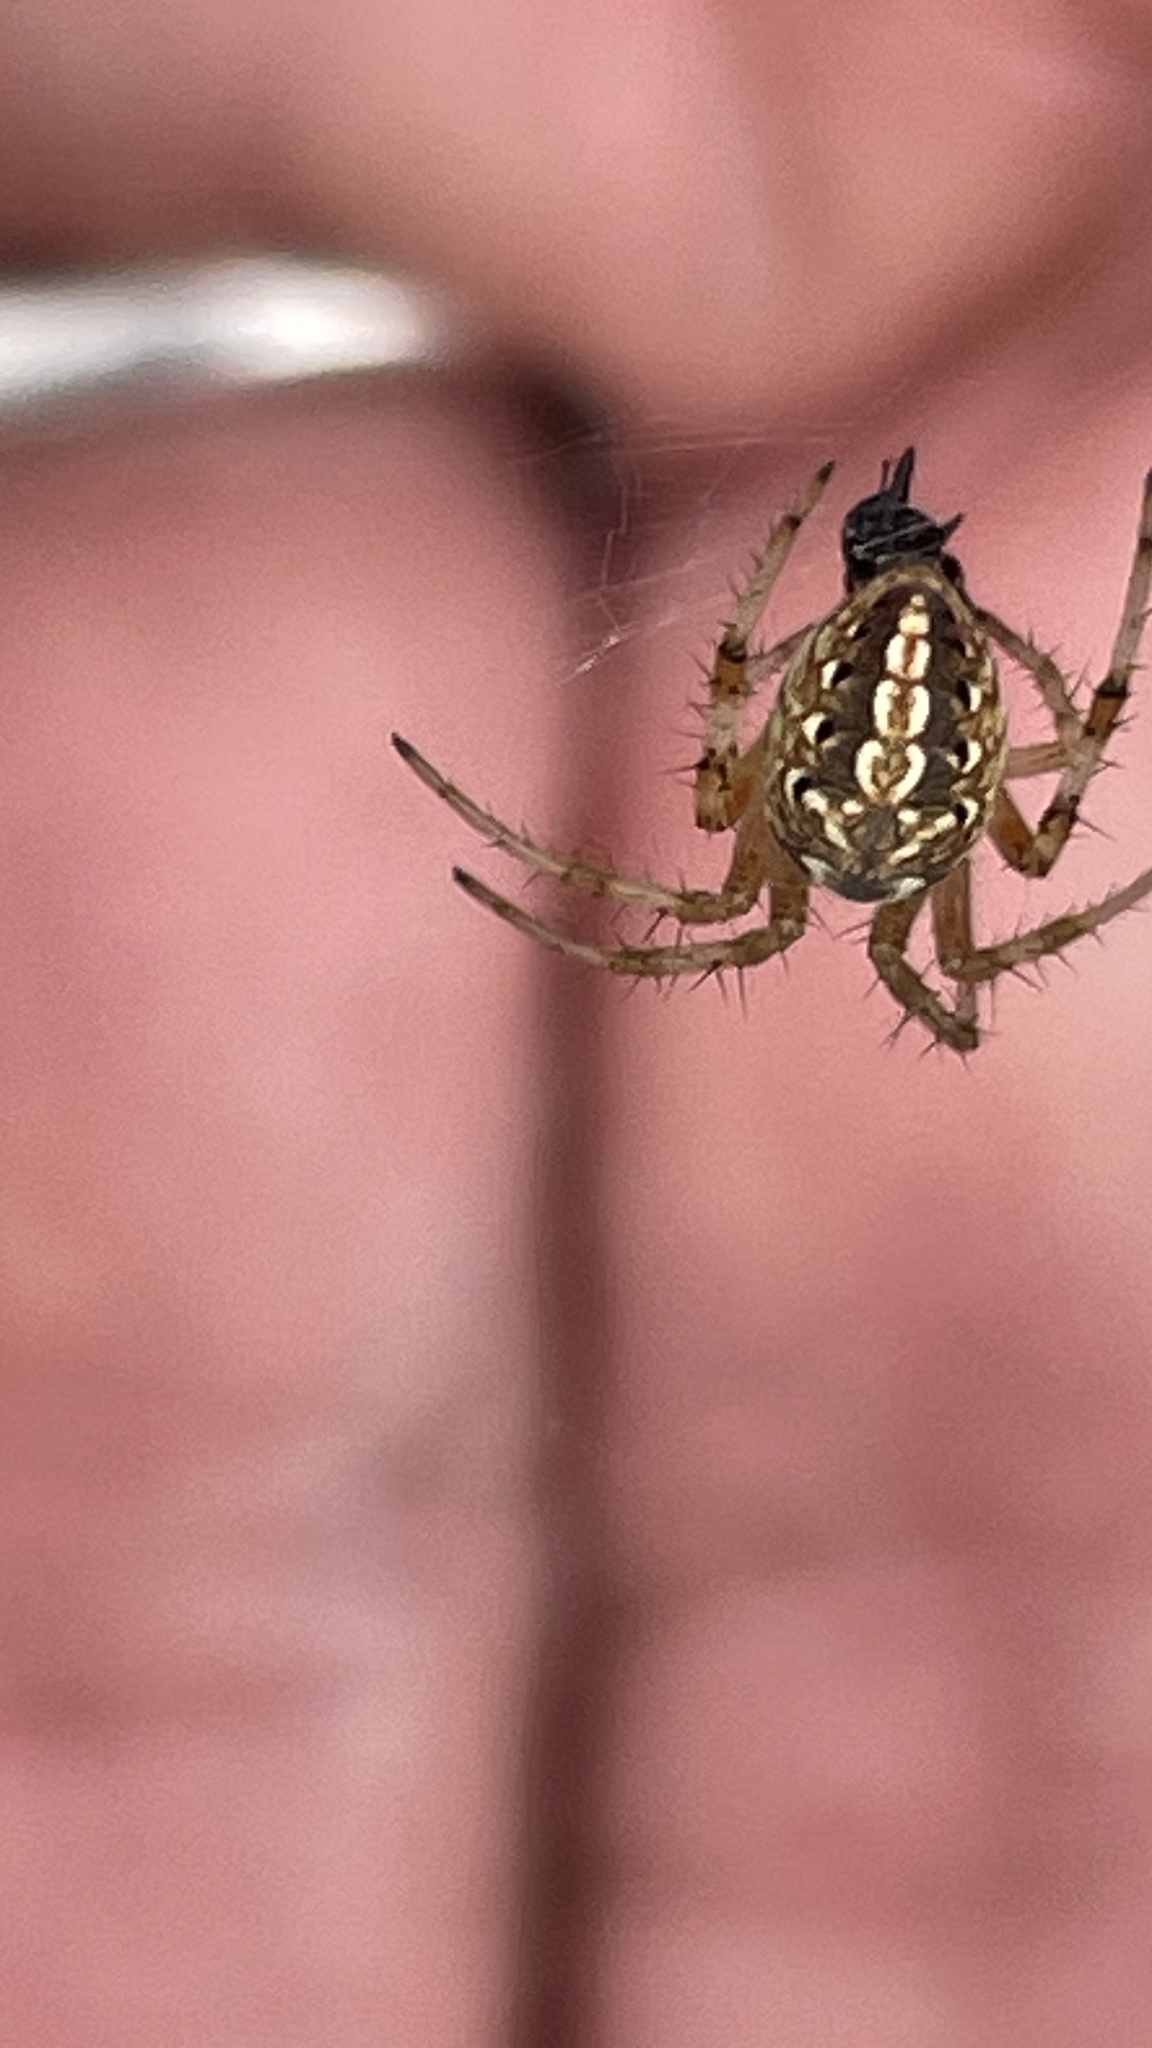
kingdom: Animalia
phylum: Arthropoda
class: Arachnida
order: Araneae
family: Araneidae
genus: Neoscona
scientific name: Neoscona oaxacensis
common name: Orb weavers
